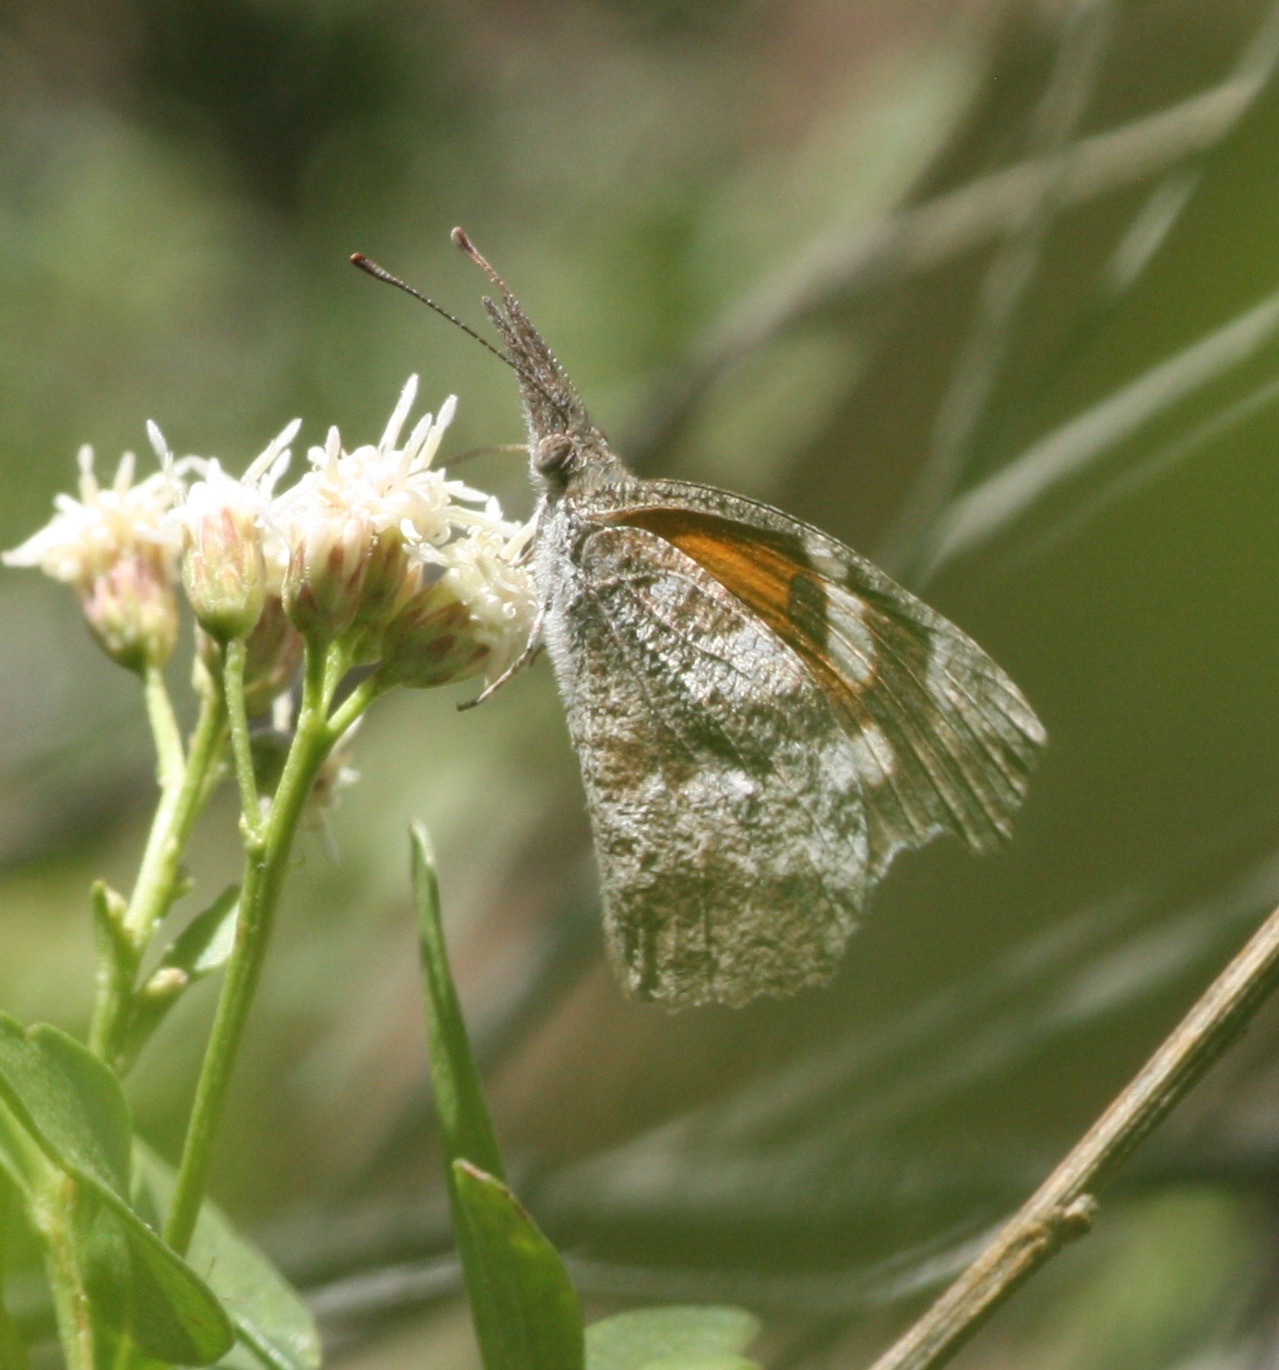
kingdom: Animalia
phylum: Arthropoda
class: Insecta
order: Lepidoptera
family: Nymphalidae
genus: Libytheana
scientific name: Libytheana carinenta
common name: American snout
